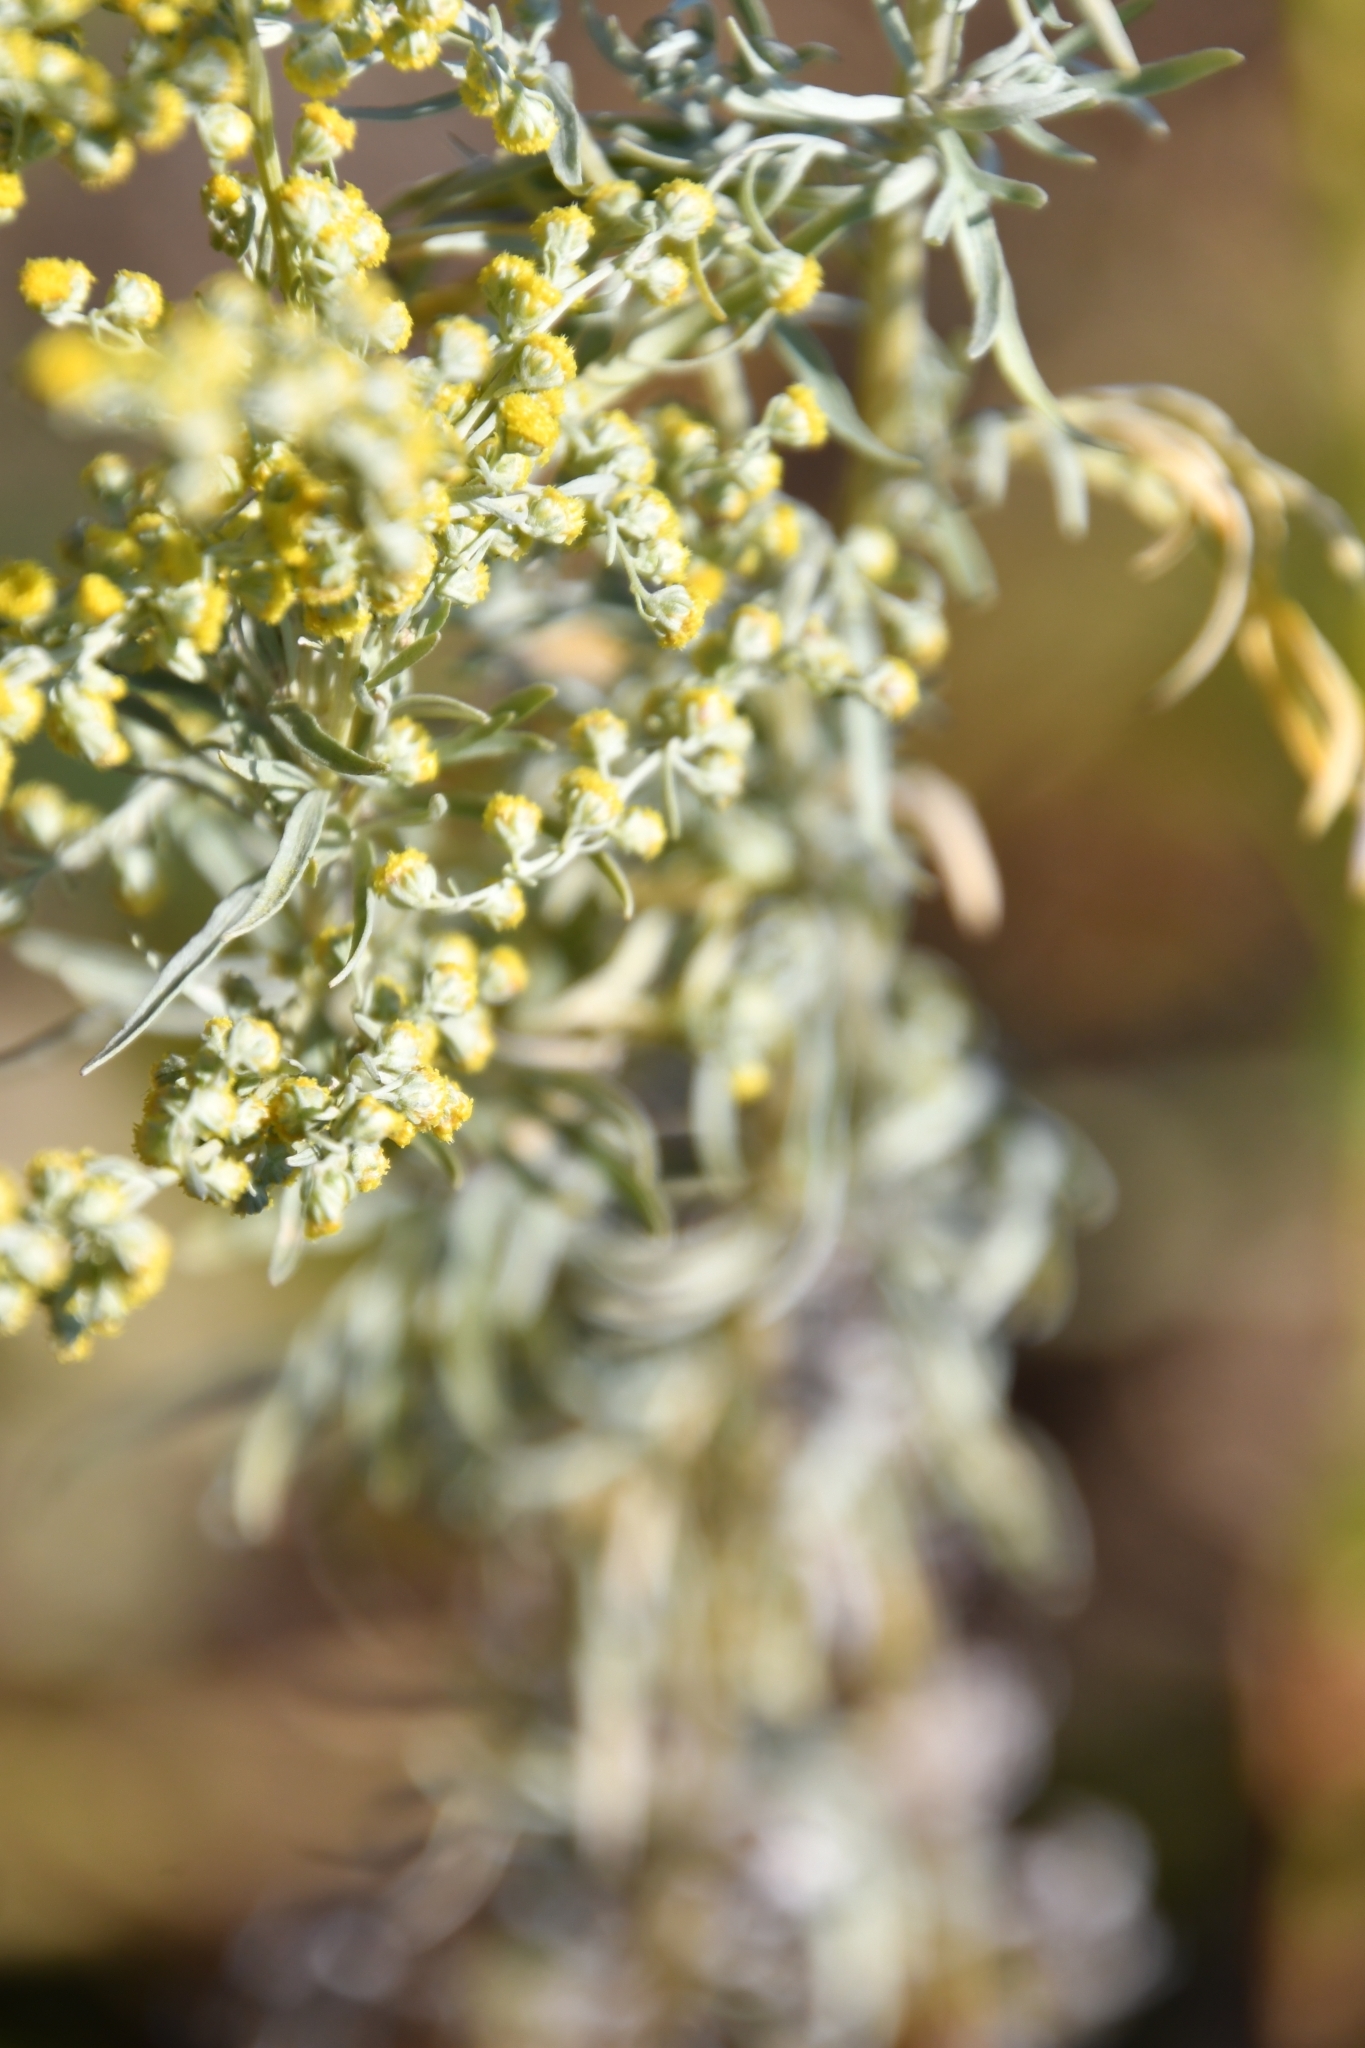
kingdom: Plantae
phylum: Tracheophyta
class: Magnoliopsida
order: Asterales
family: Asteraceae
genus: Artemisia
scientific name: Artemisia absinthium
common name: Wormwood
